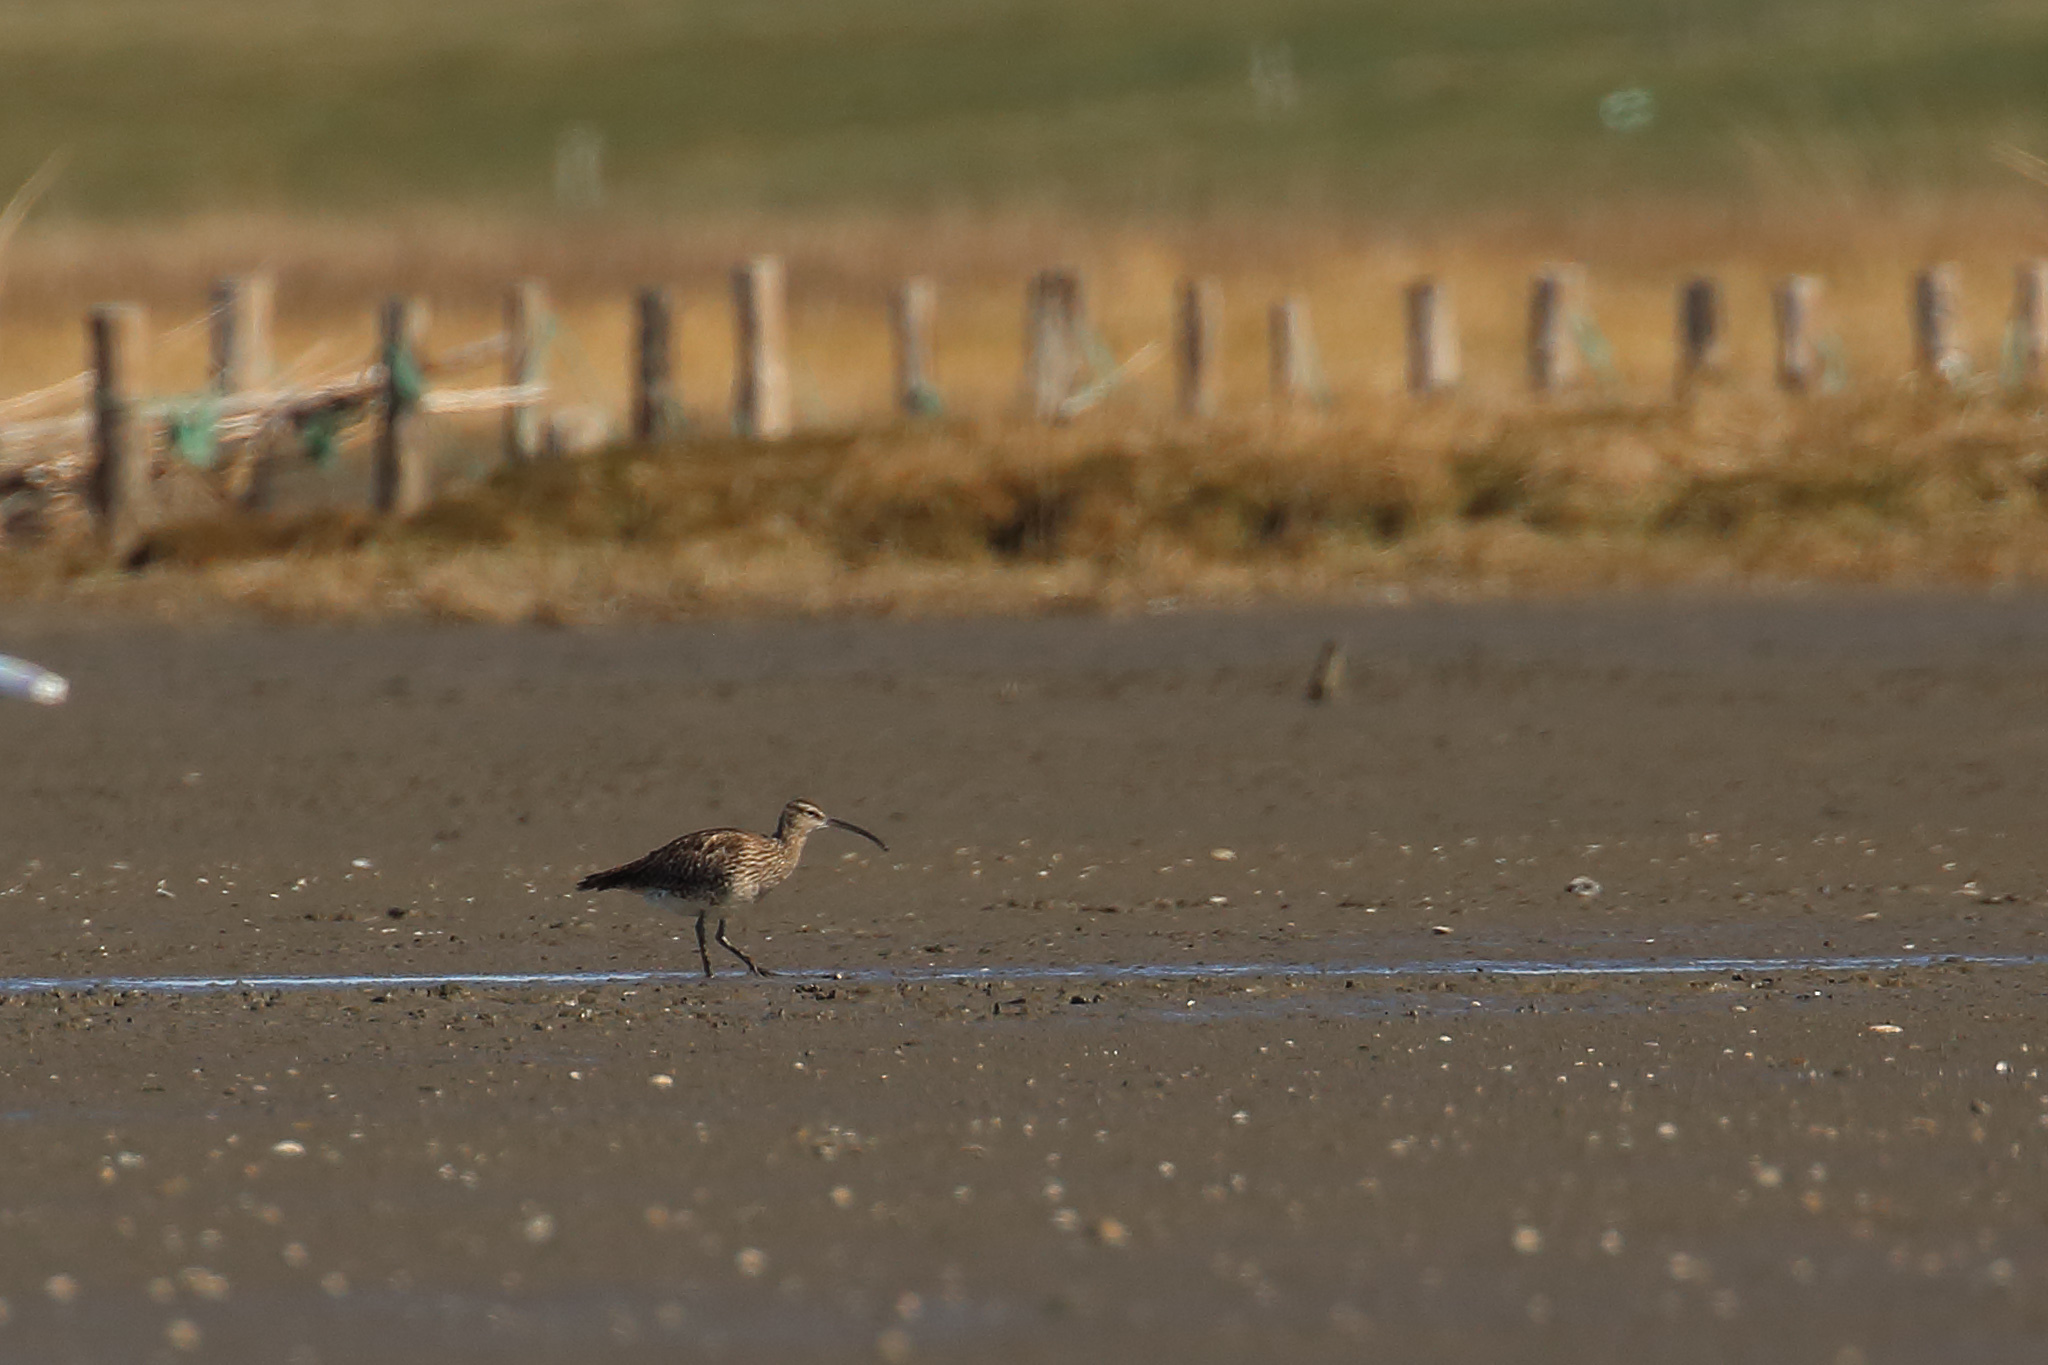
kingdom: Animalia
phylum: Chordata
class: Aves
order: Charadriiformes
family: Scolopacidae
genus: Numenius
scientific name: Numenius phaeopus
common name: Whimbrel
